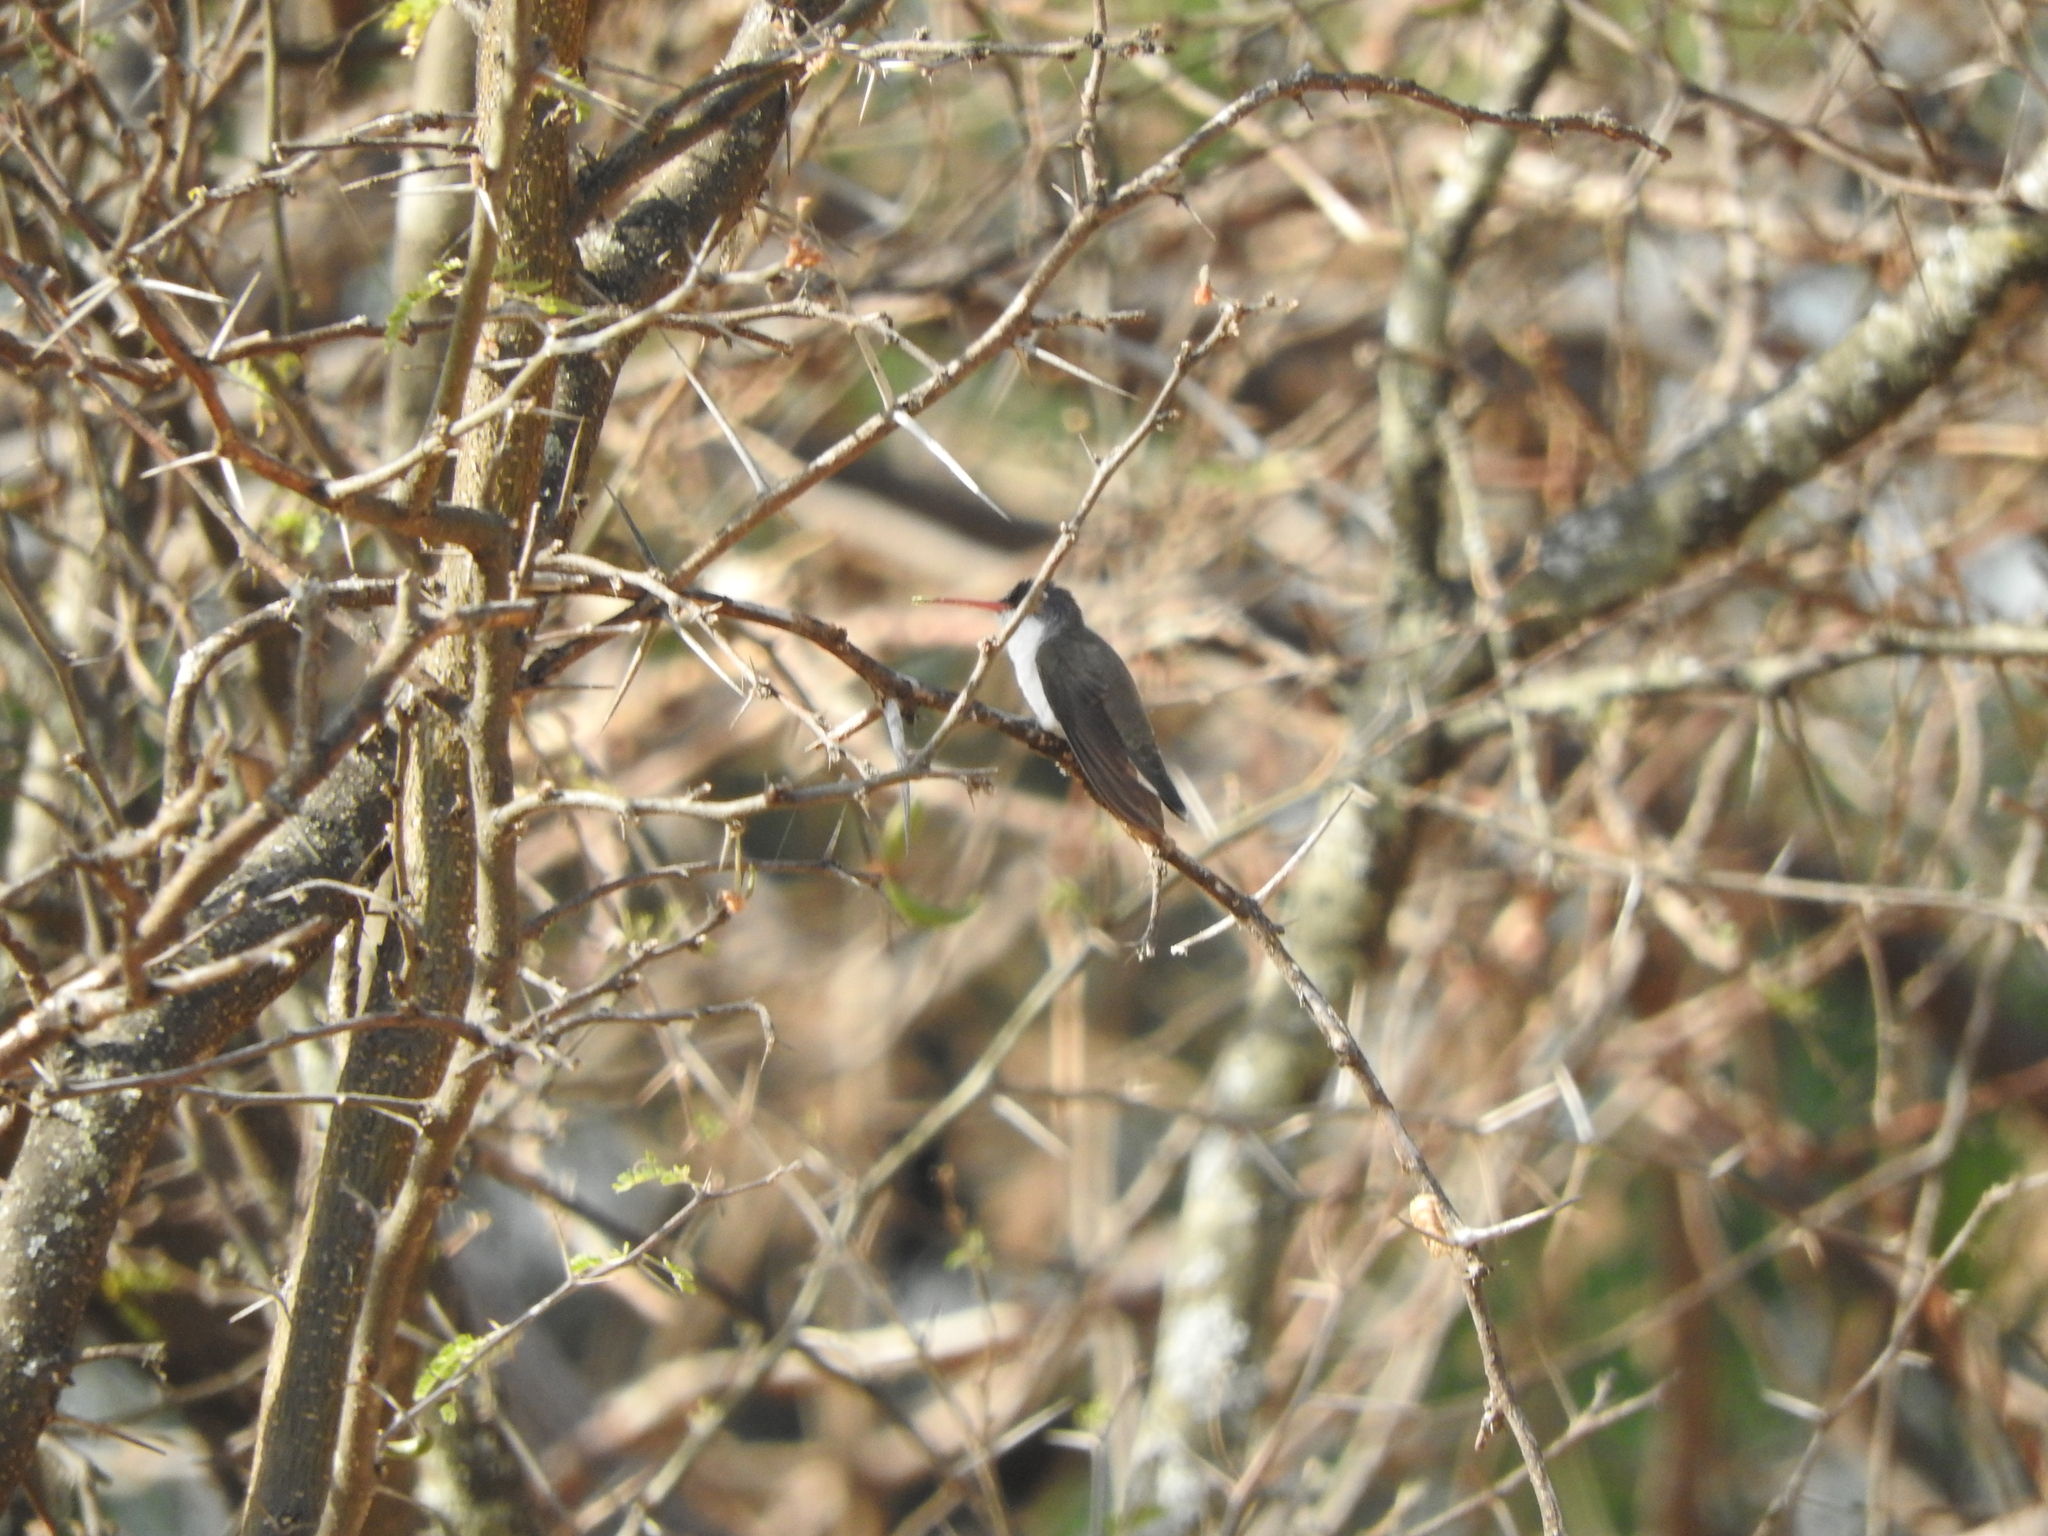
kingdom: Animalia
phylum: Chordata
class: Aves
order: Apodiformes
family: Trochilidae
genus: Leucolia
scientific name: Leucolia violiceps
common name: Violet-crowned hummingbird
